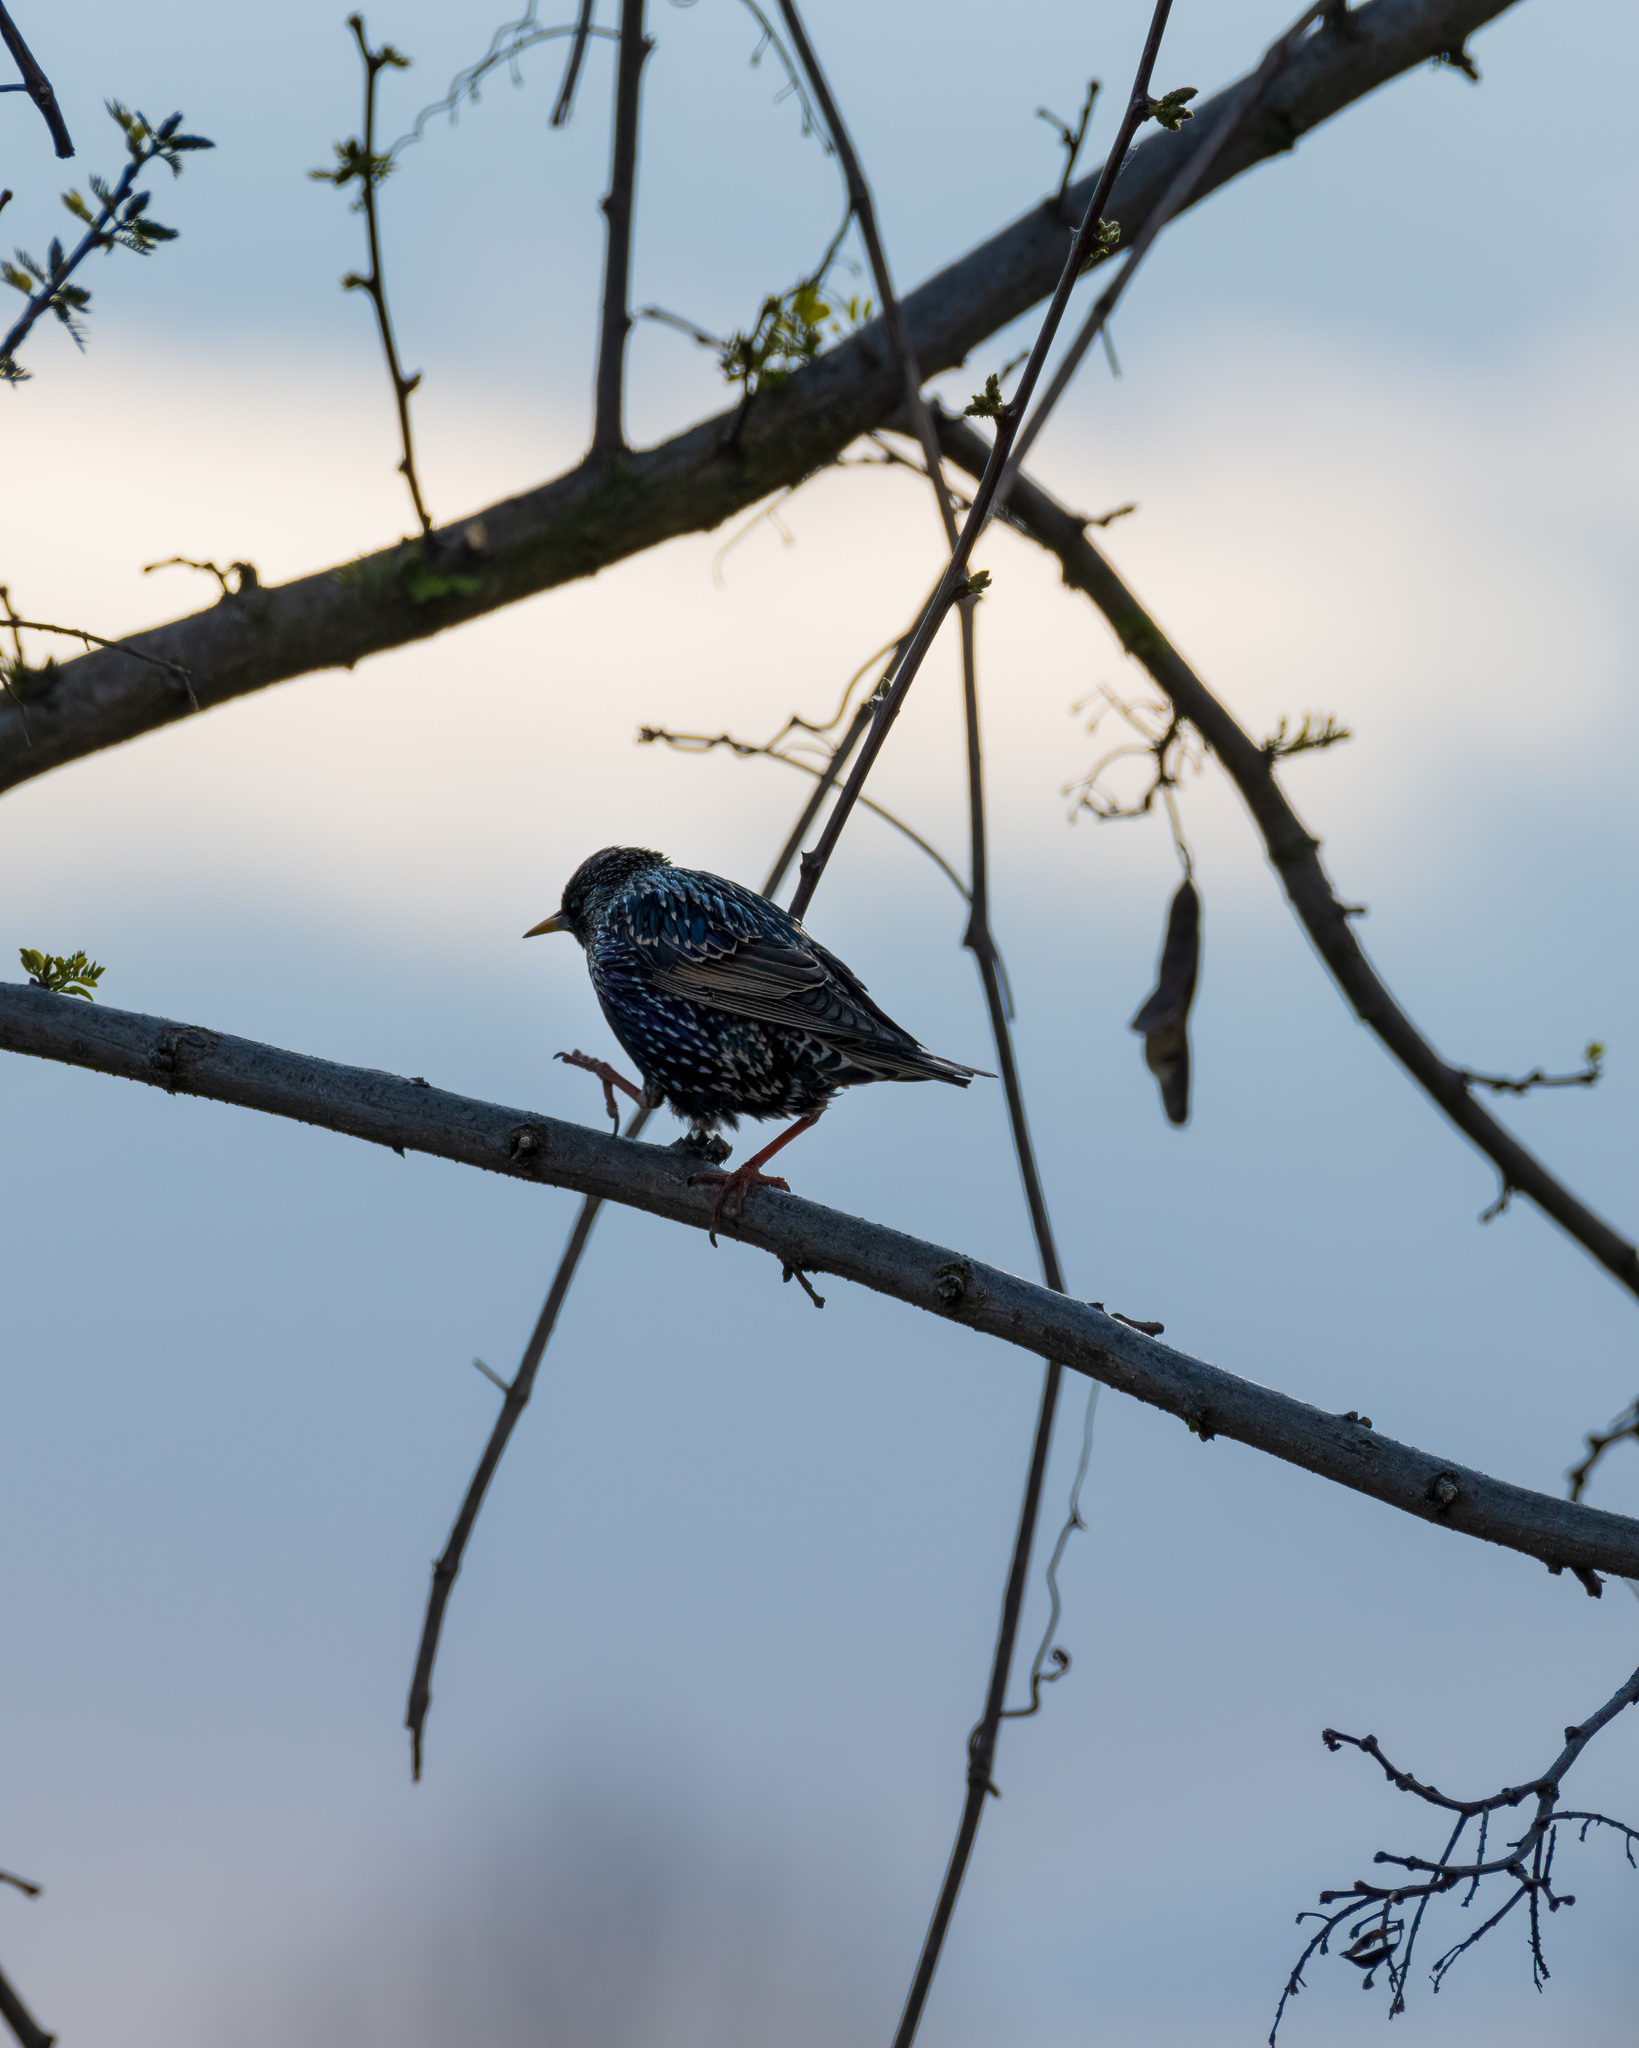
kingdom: Animalia
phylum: Chordata
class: Aves
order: Passeriformes
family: Sturnidae
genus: Sturnus
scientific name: Sturnus vulgaris
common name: Common starling
